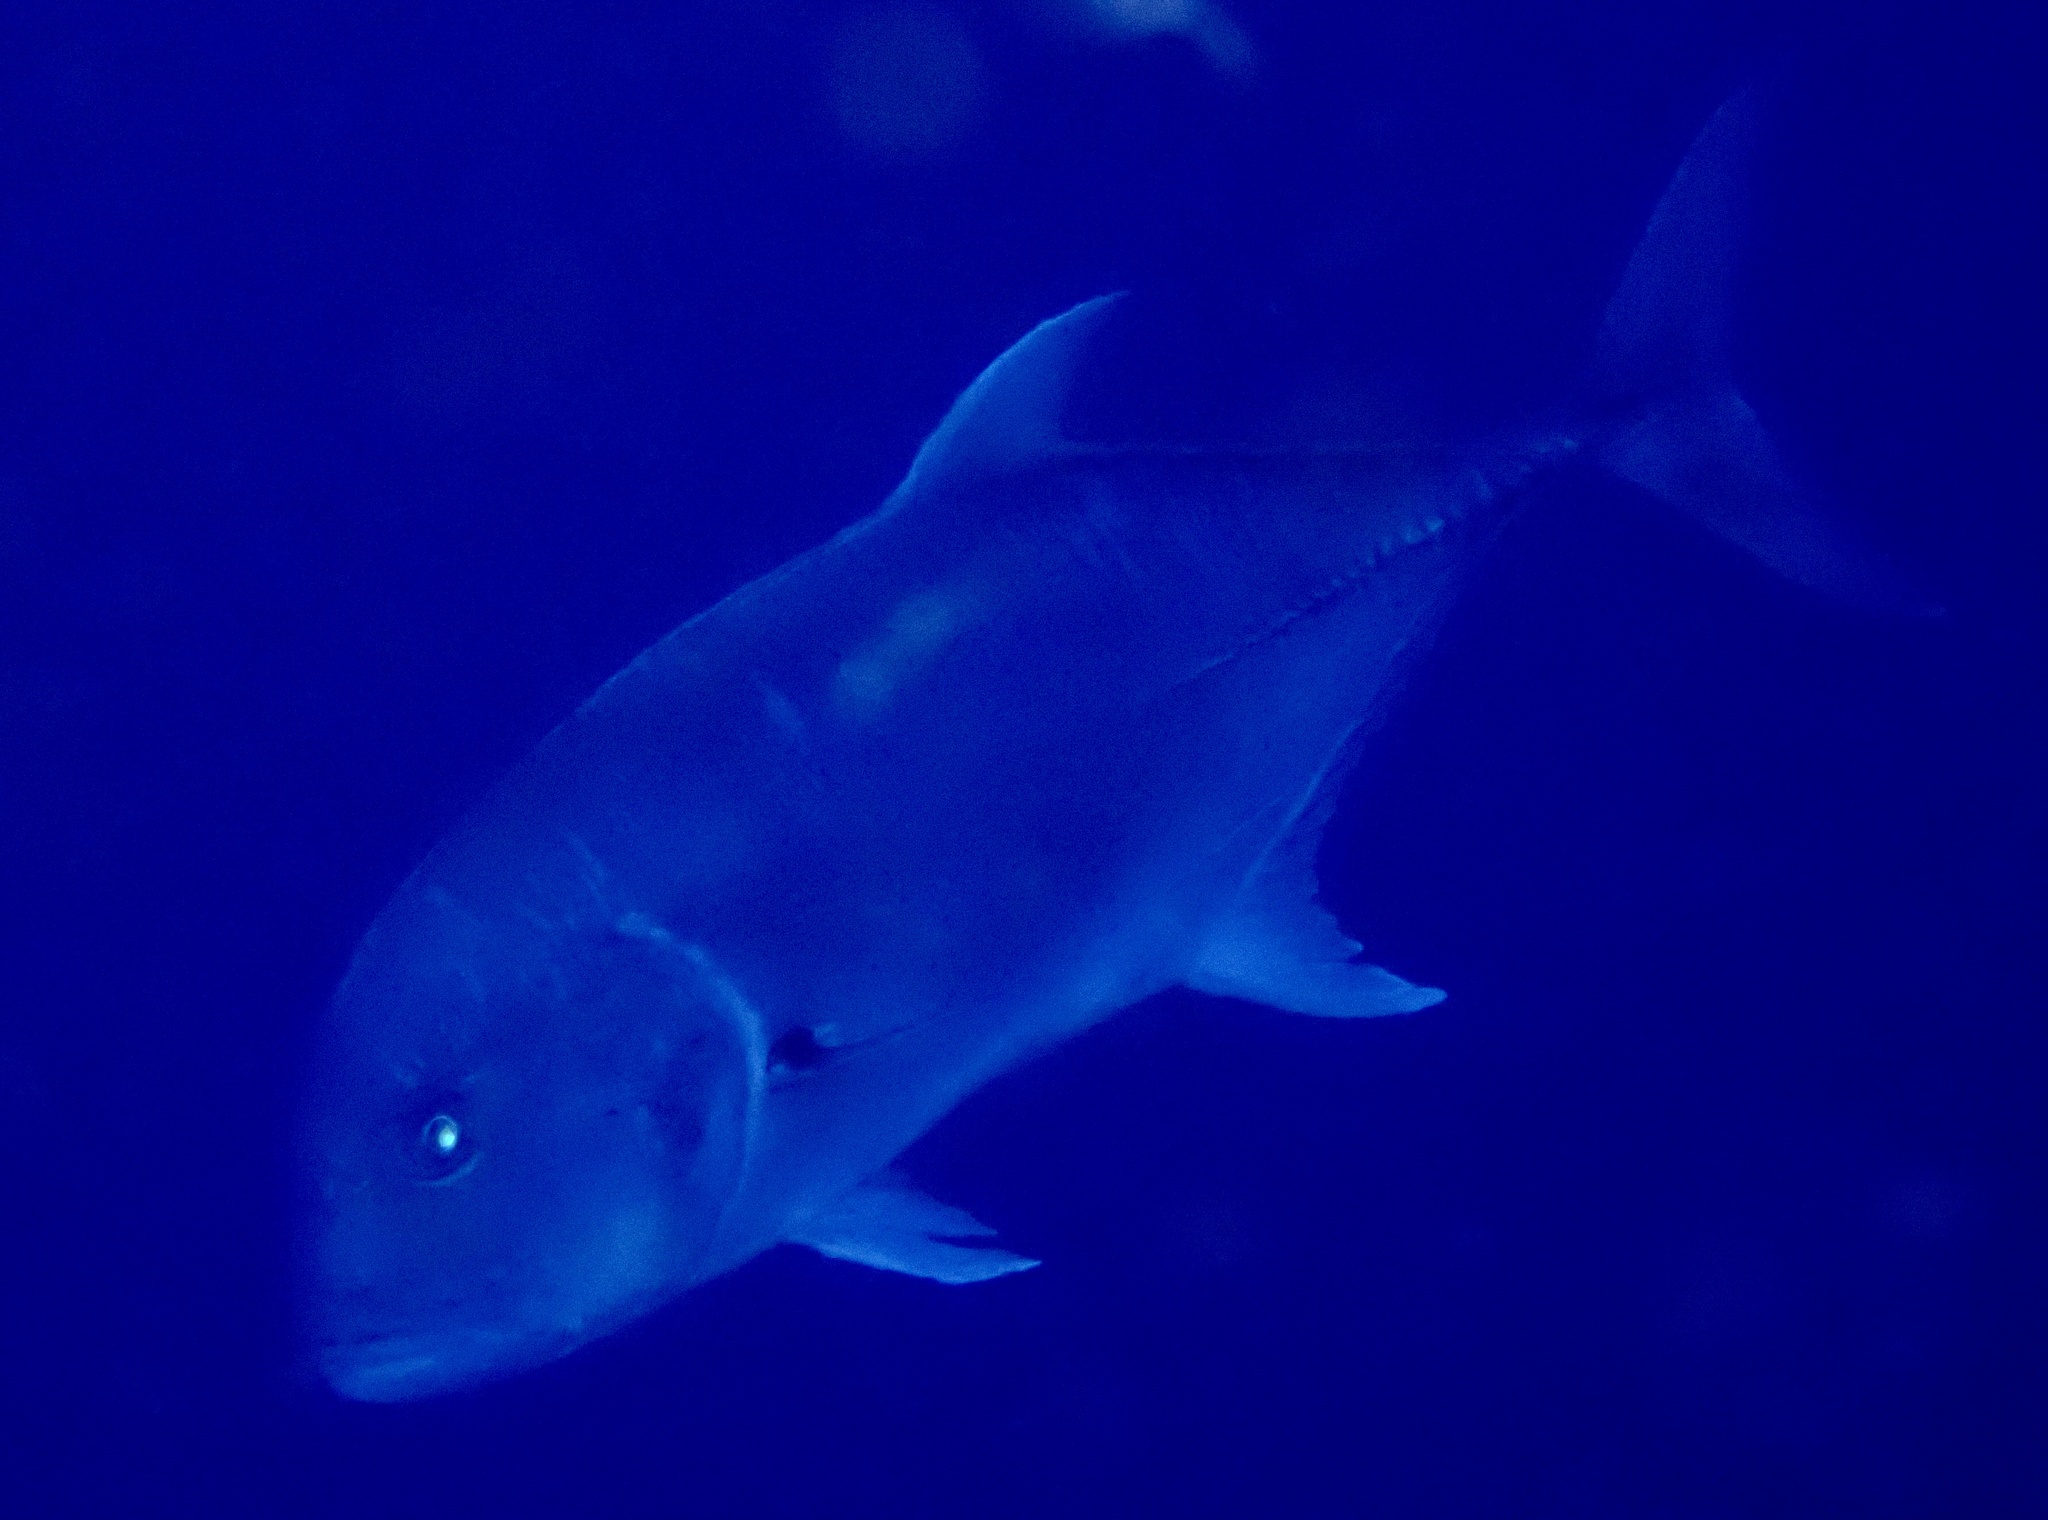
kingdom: Animalia
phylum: Chordata
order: Perciformes
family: Carangidae
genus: Caranx
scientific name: Caranx ignobilis
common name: Giant trevally
